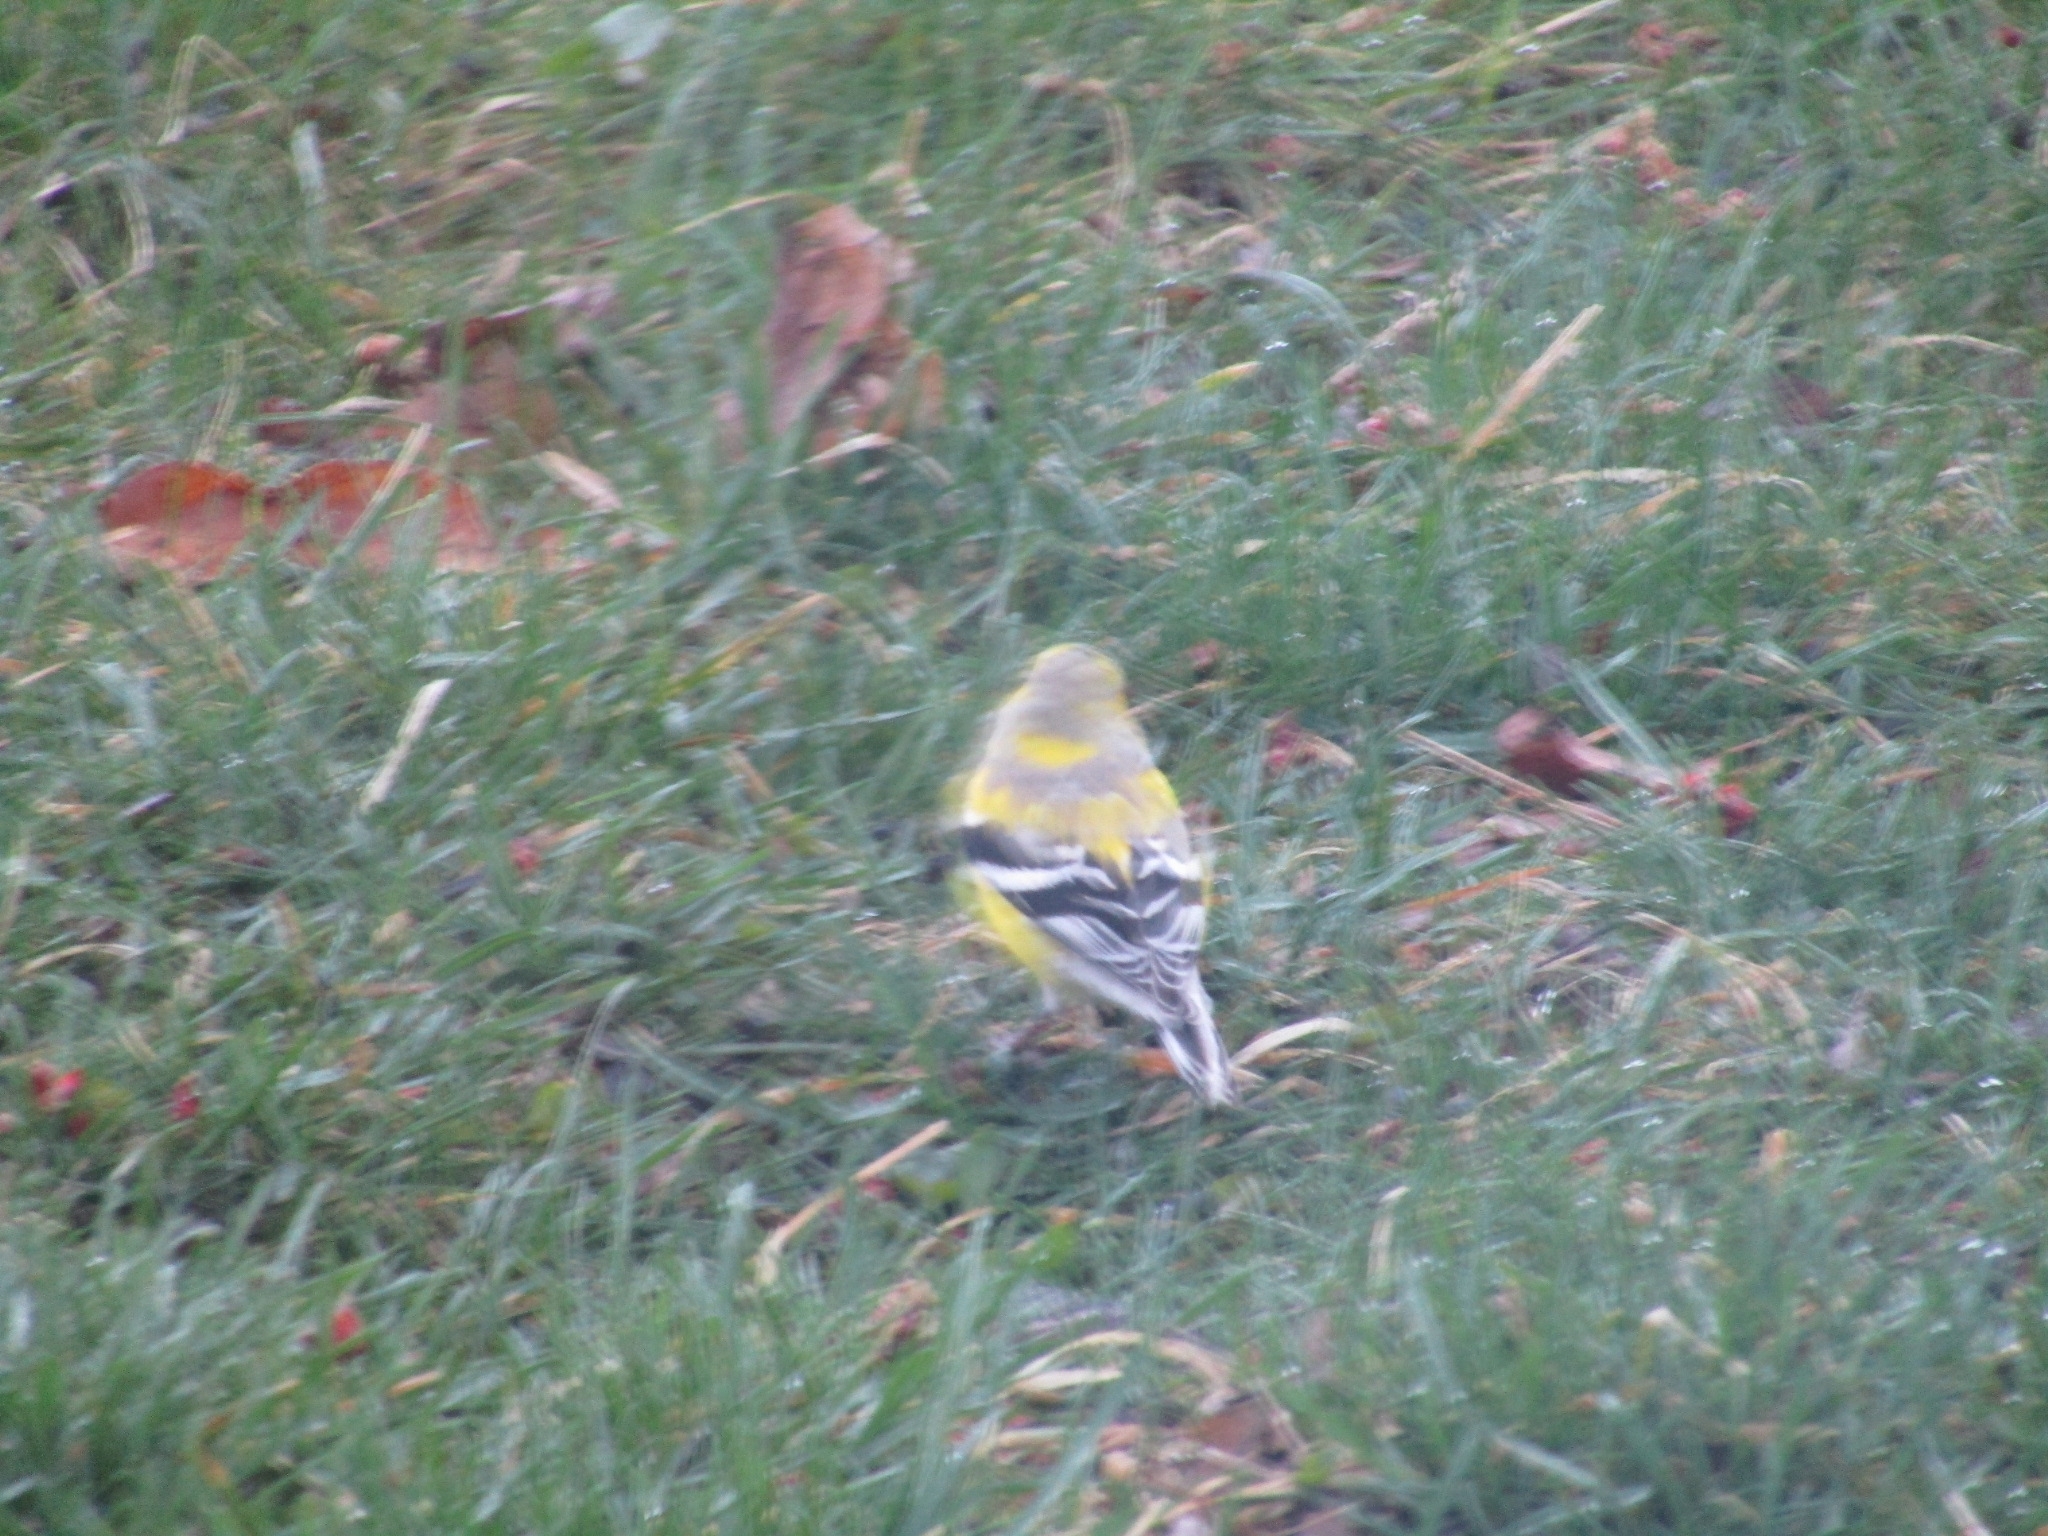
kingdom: Animalia
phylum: Chordata
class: Aves
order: Passeriformes
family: Fringillidae
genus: Spinus
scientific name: Spinus tristis
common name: American goldfinch
